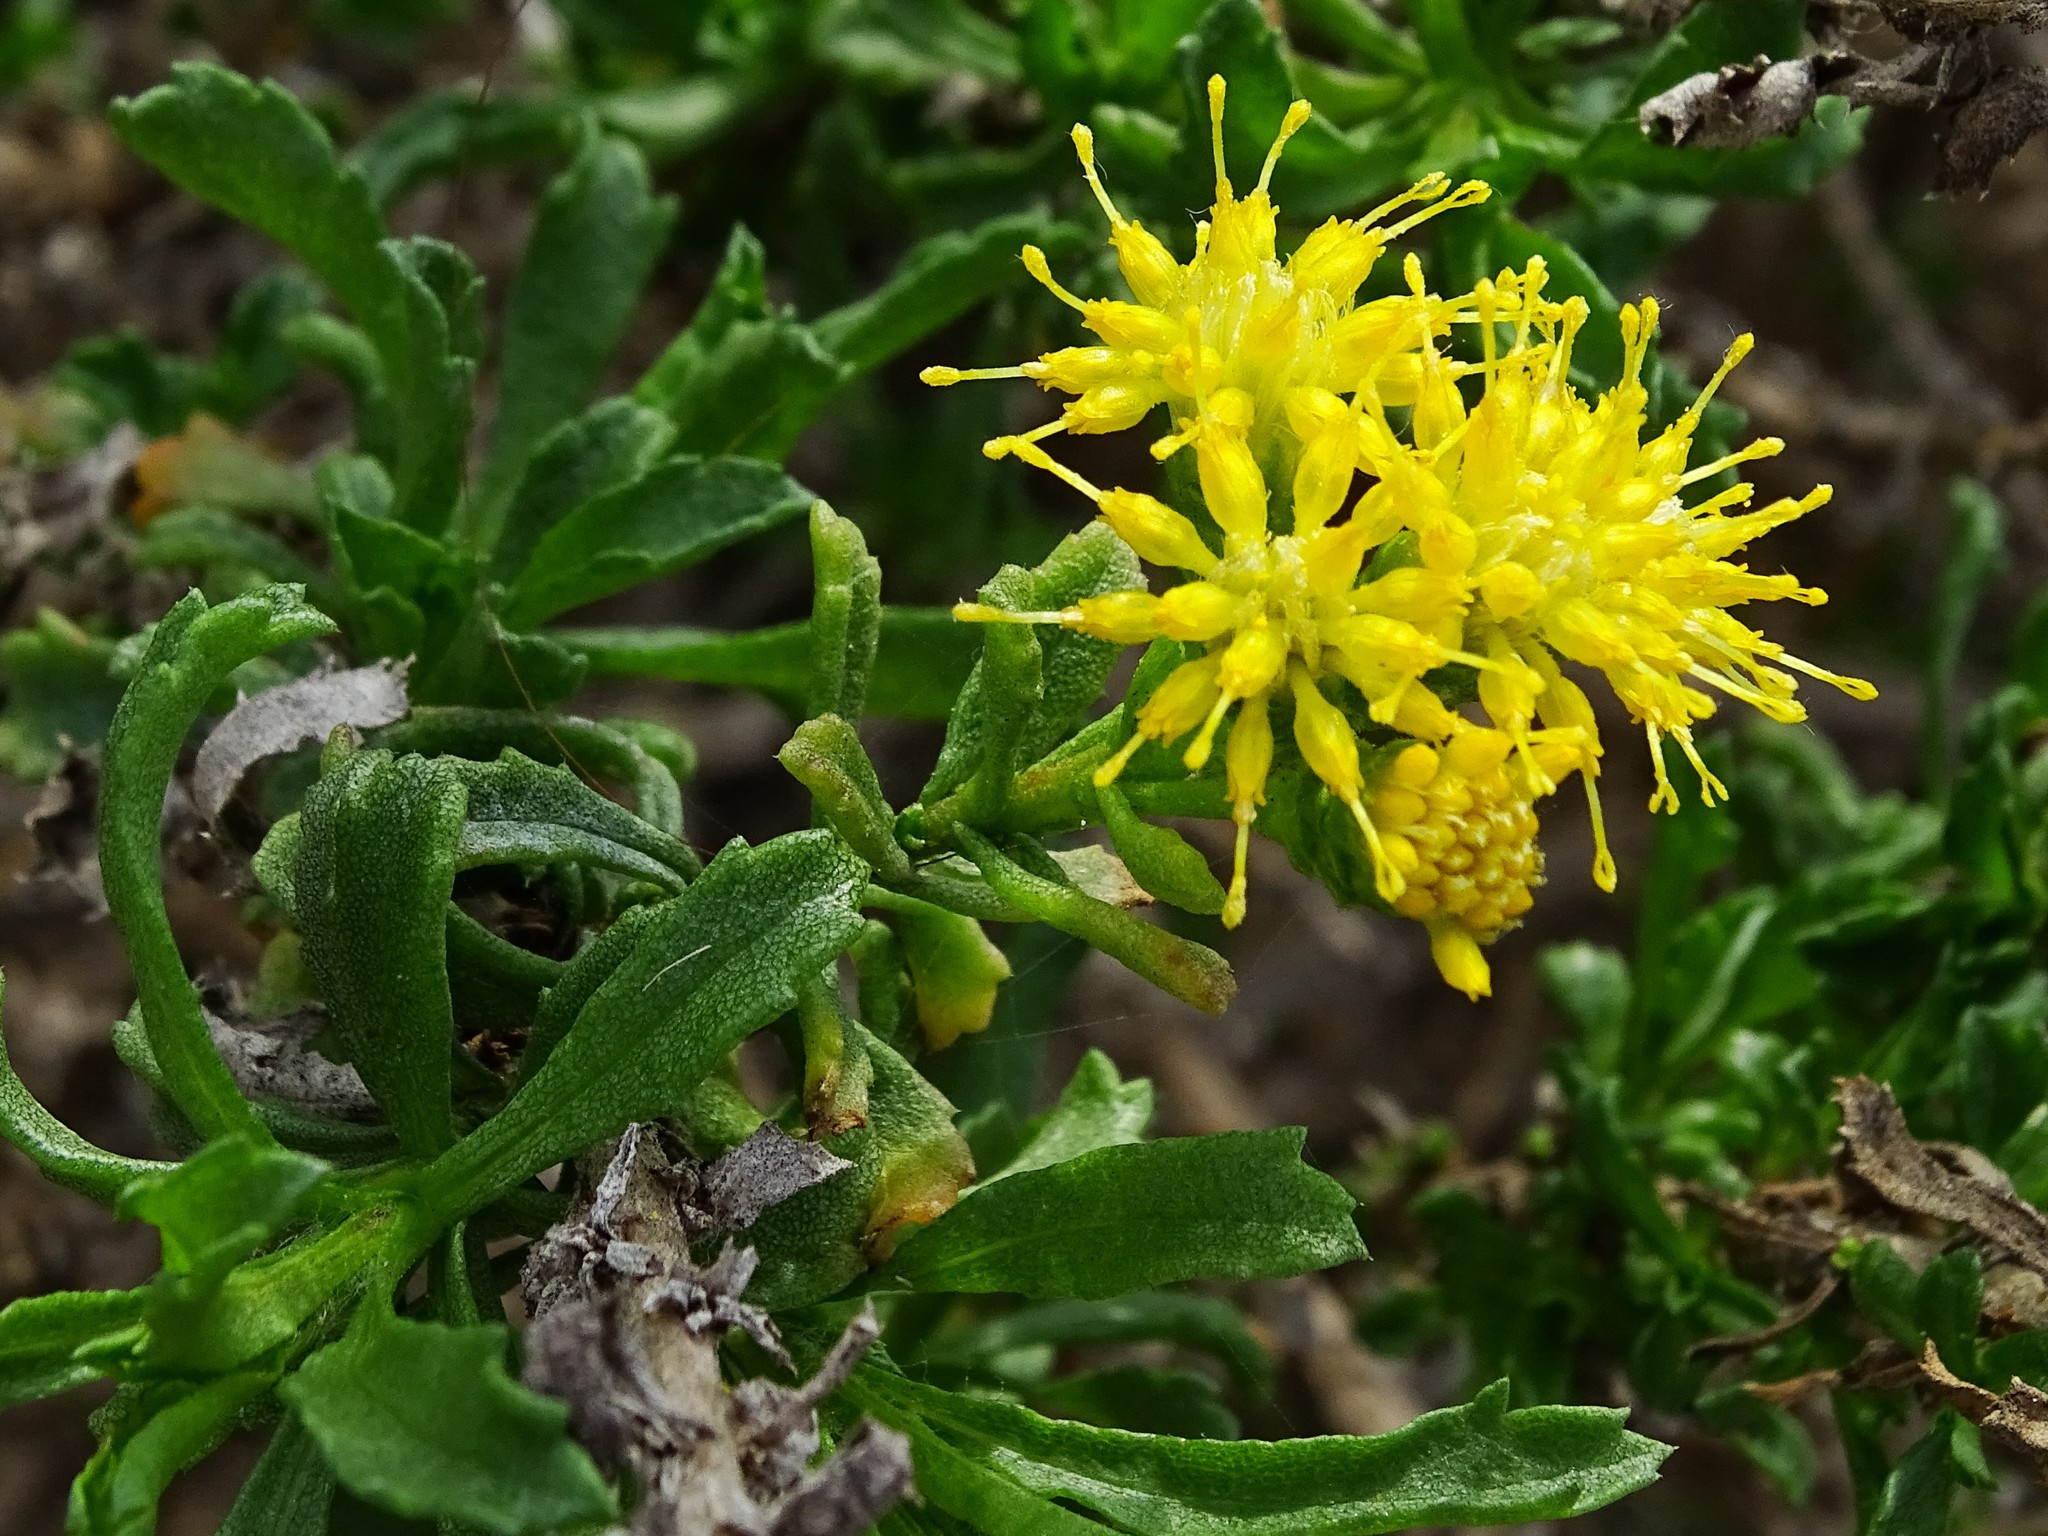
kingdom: Plantae
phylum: Tracheophyta
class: Magnoliopsida
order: Asterales
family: Asteraceae
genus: Isocoma
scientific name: Isocoma menziesii
